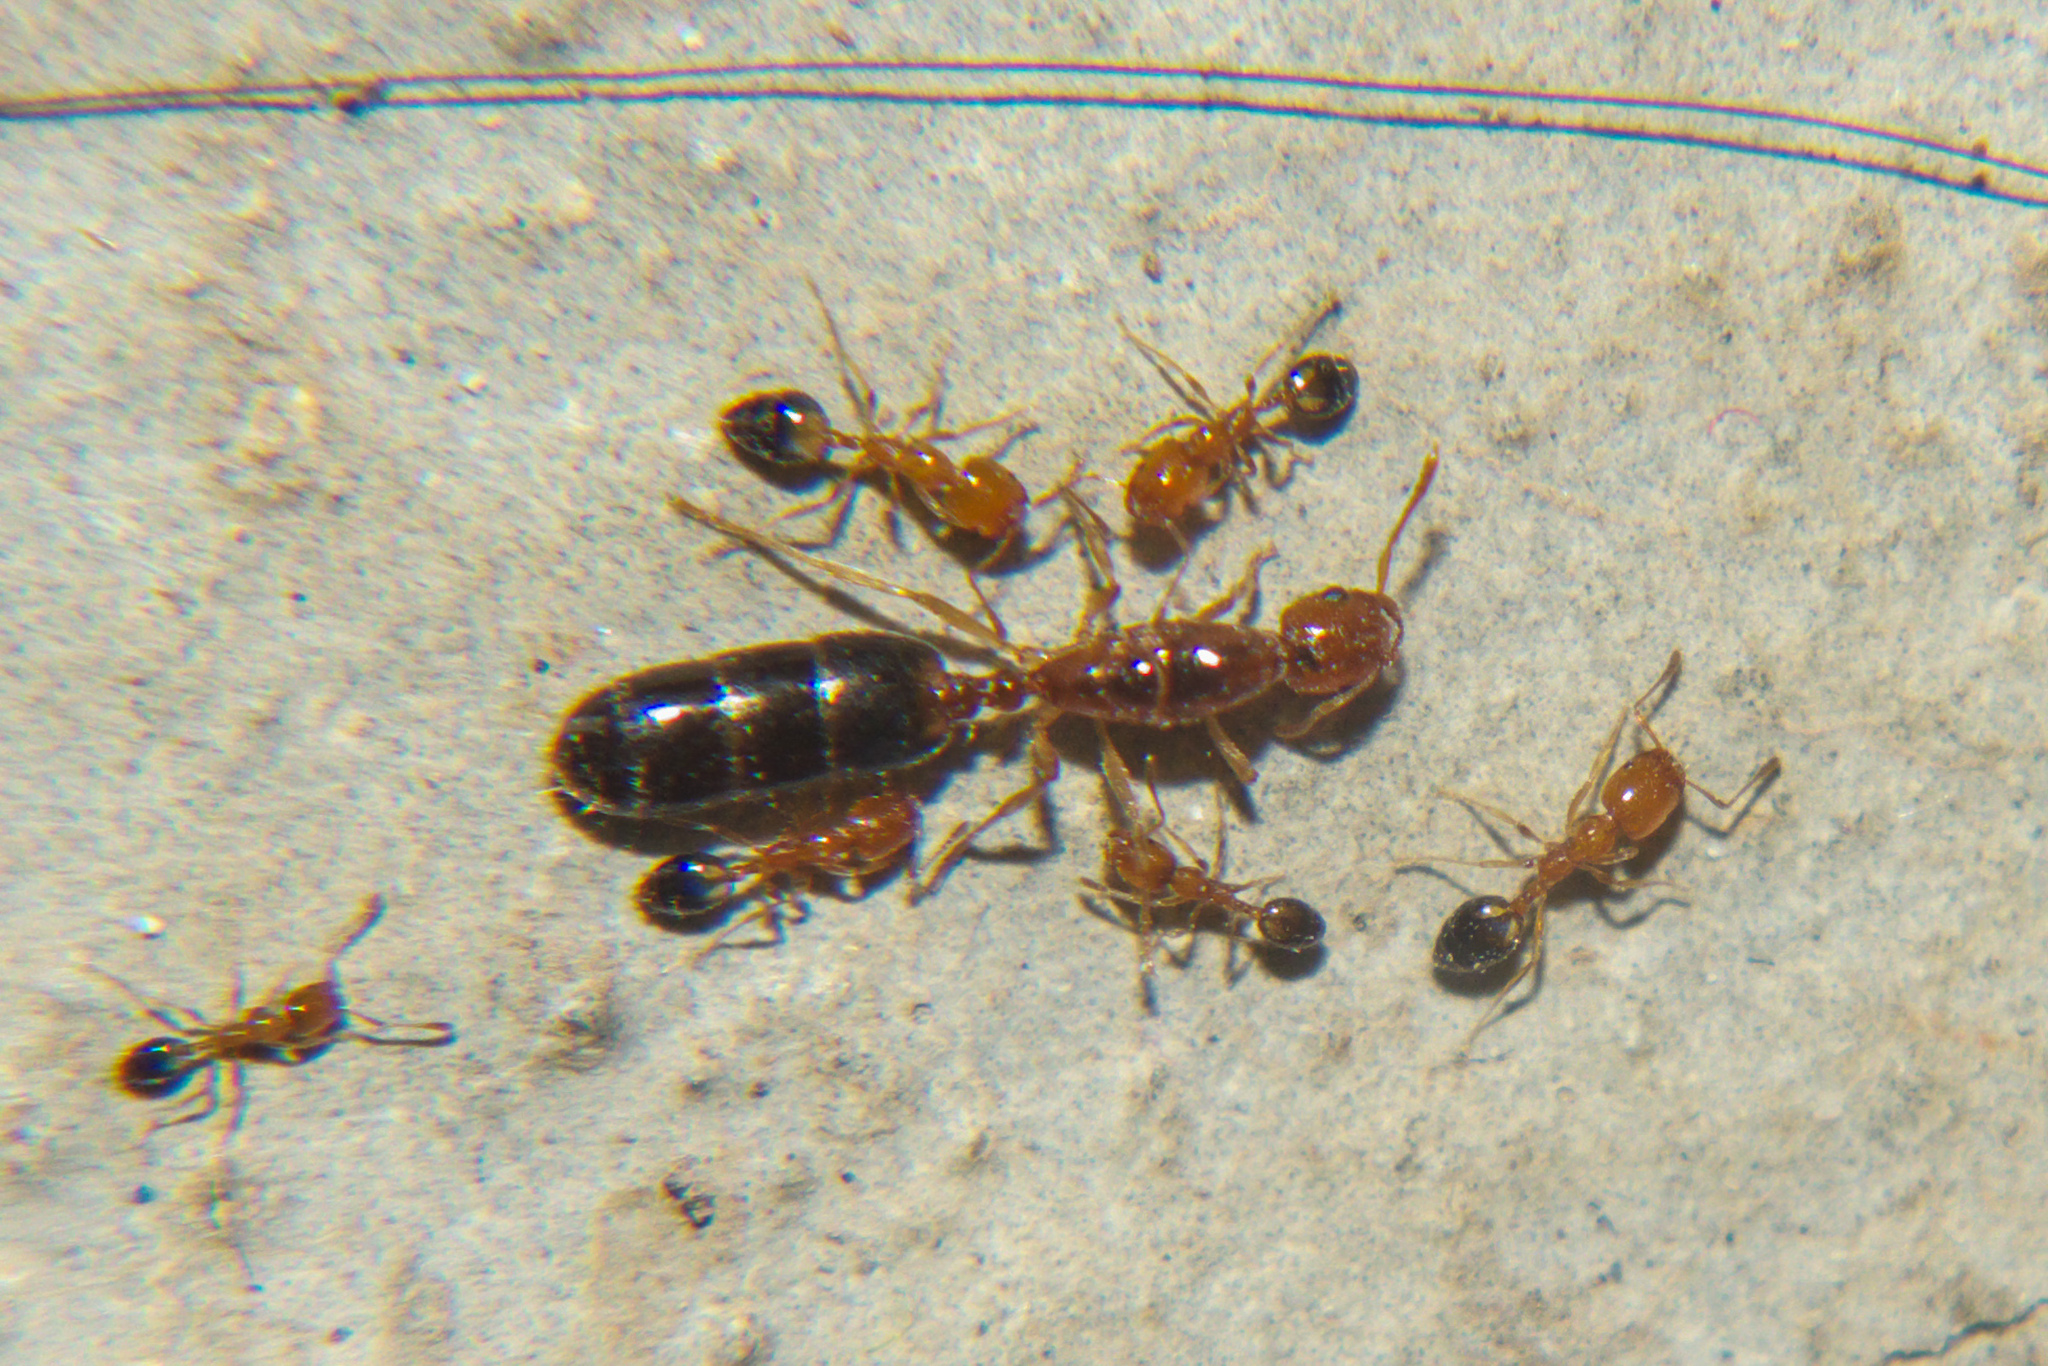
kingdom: Animalia
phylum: Arthropoda
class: Insecta
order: Hymenoptera
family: Formicidae
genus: Monomorium
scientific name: Monomorium destructor
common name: Destructive trailing ant
